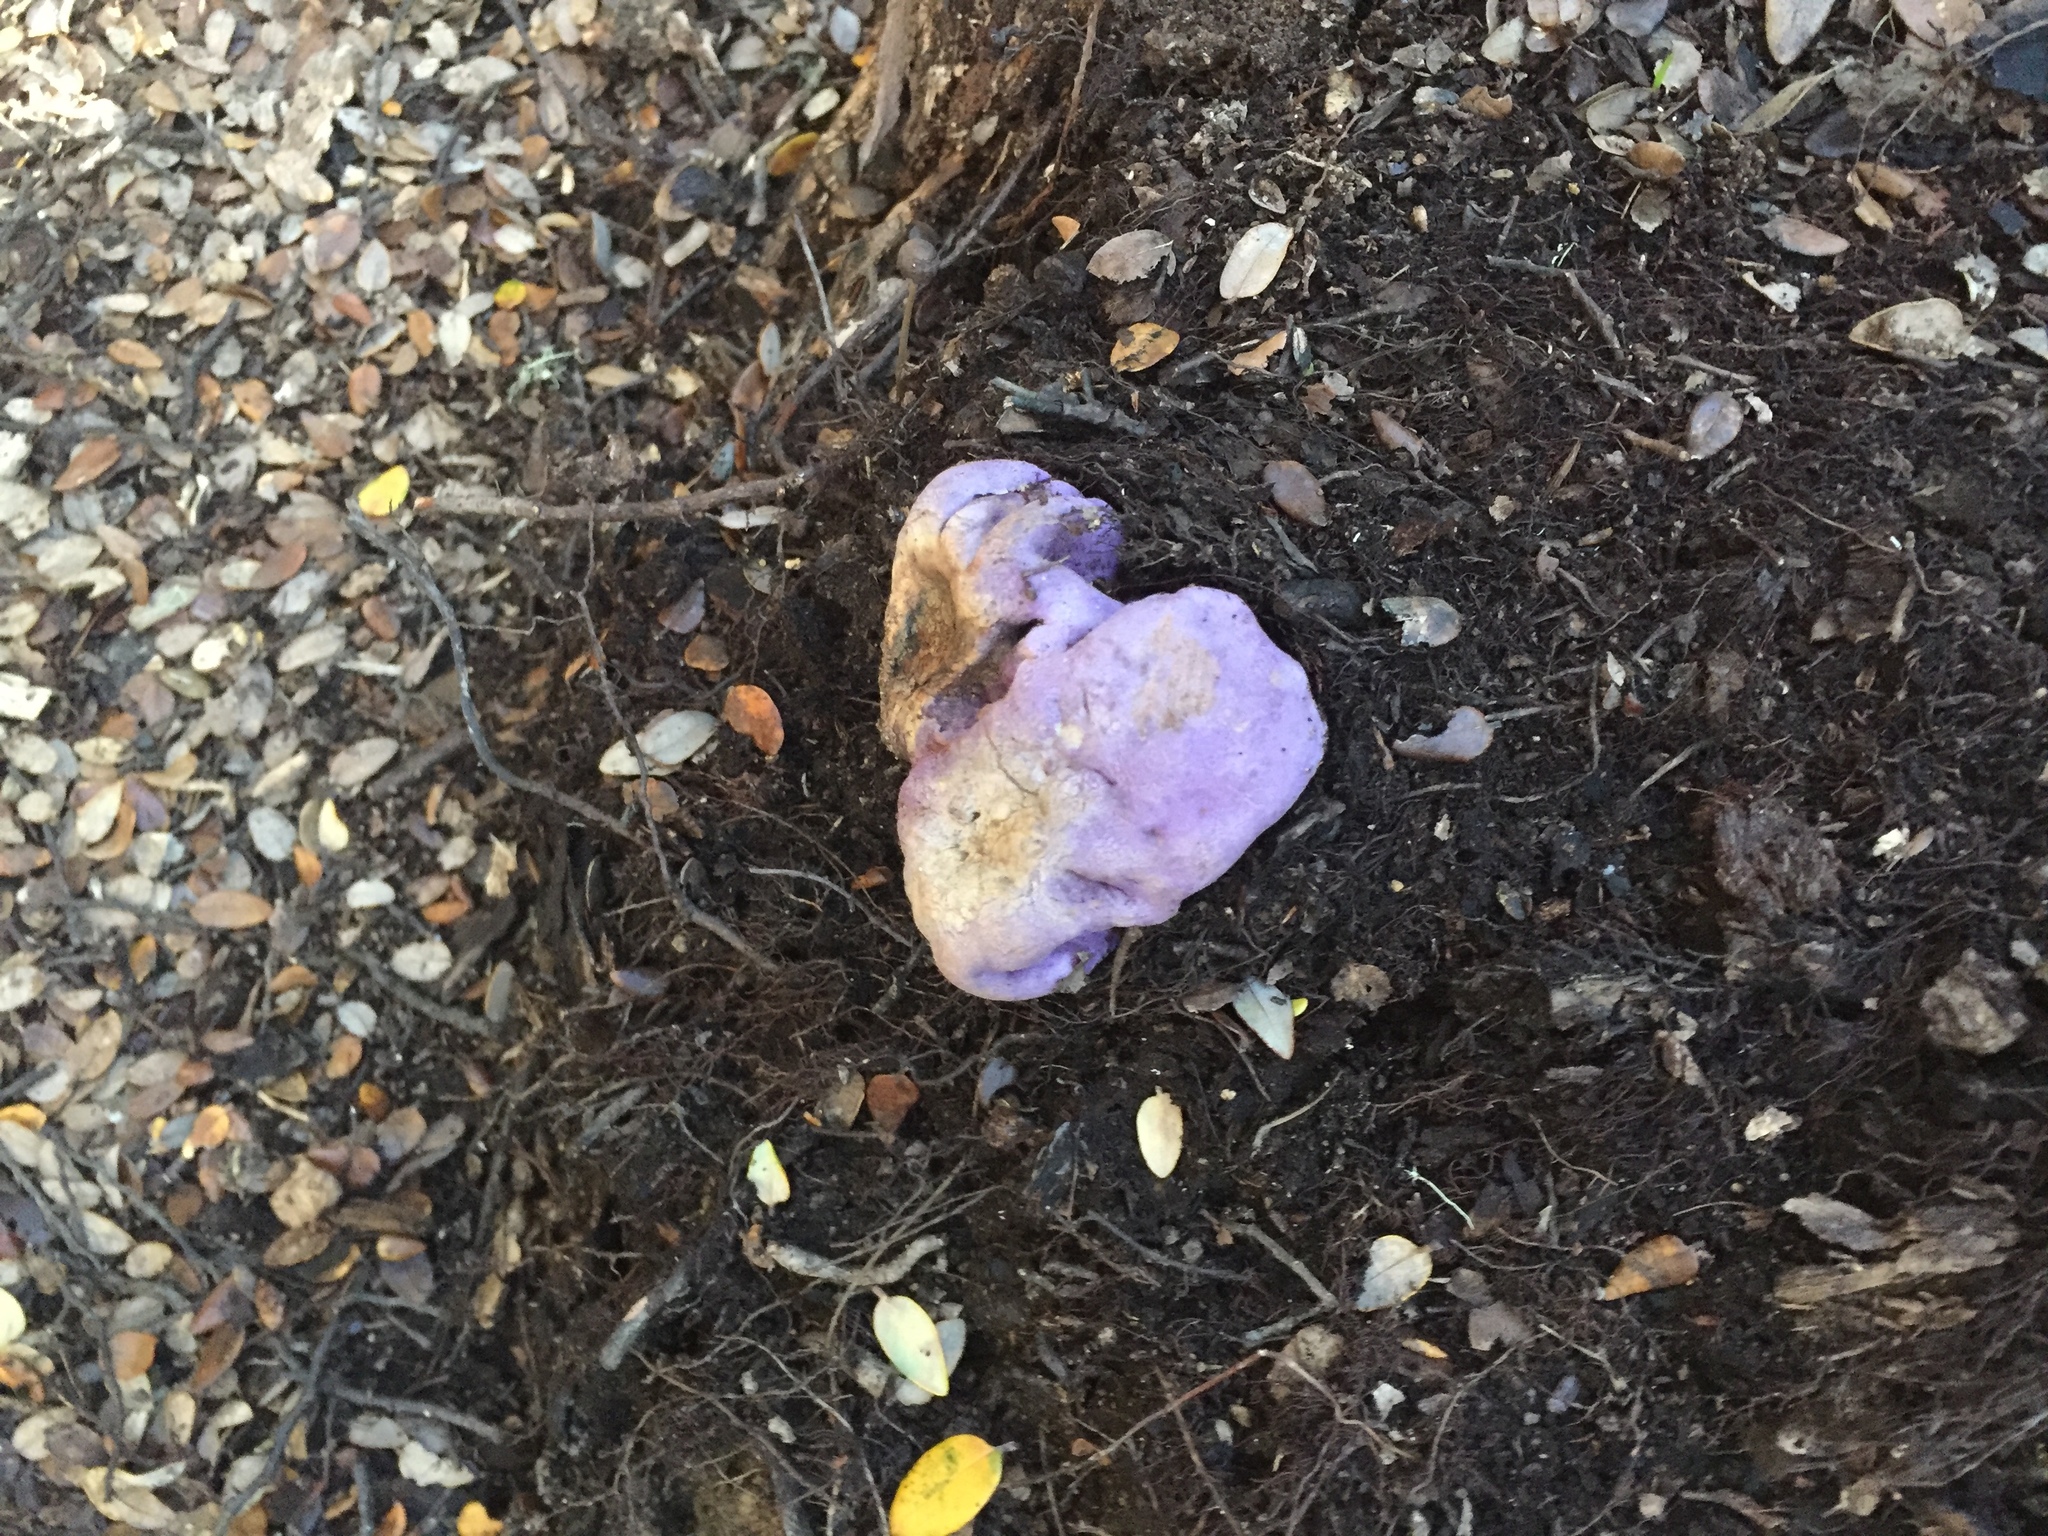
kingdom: Fungi
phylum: Basidiomycota
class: Agaricomycetes
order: Hysterangiales
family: Gallaceaceae
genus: Gallacea
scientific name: Gallacea scleroderma
